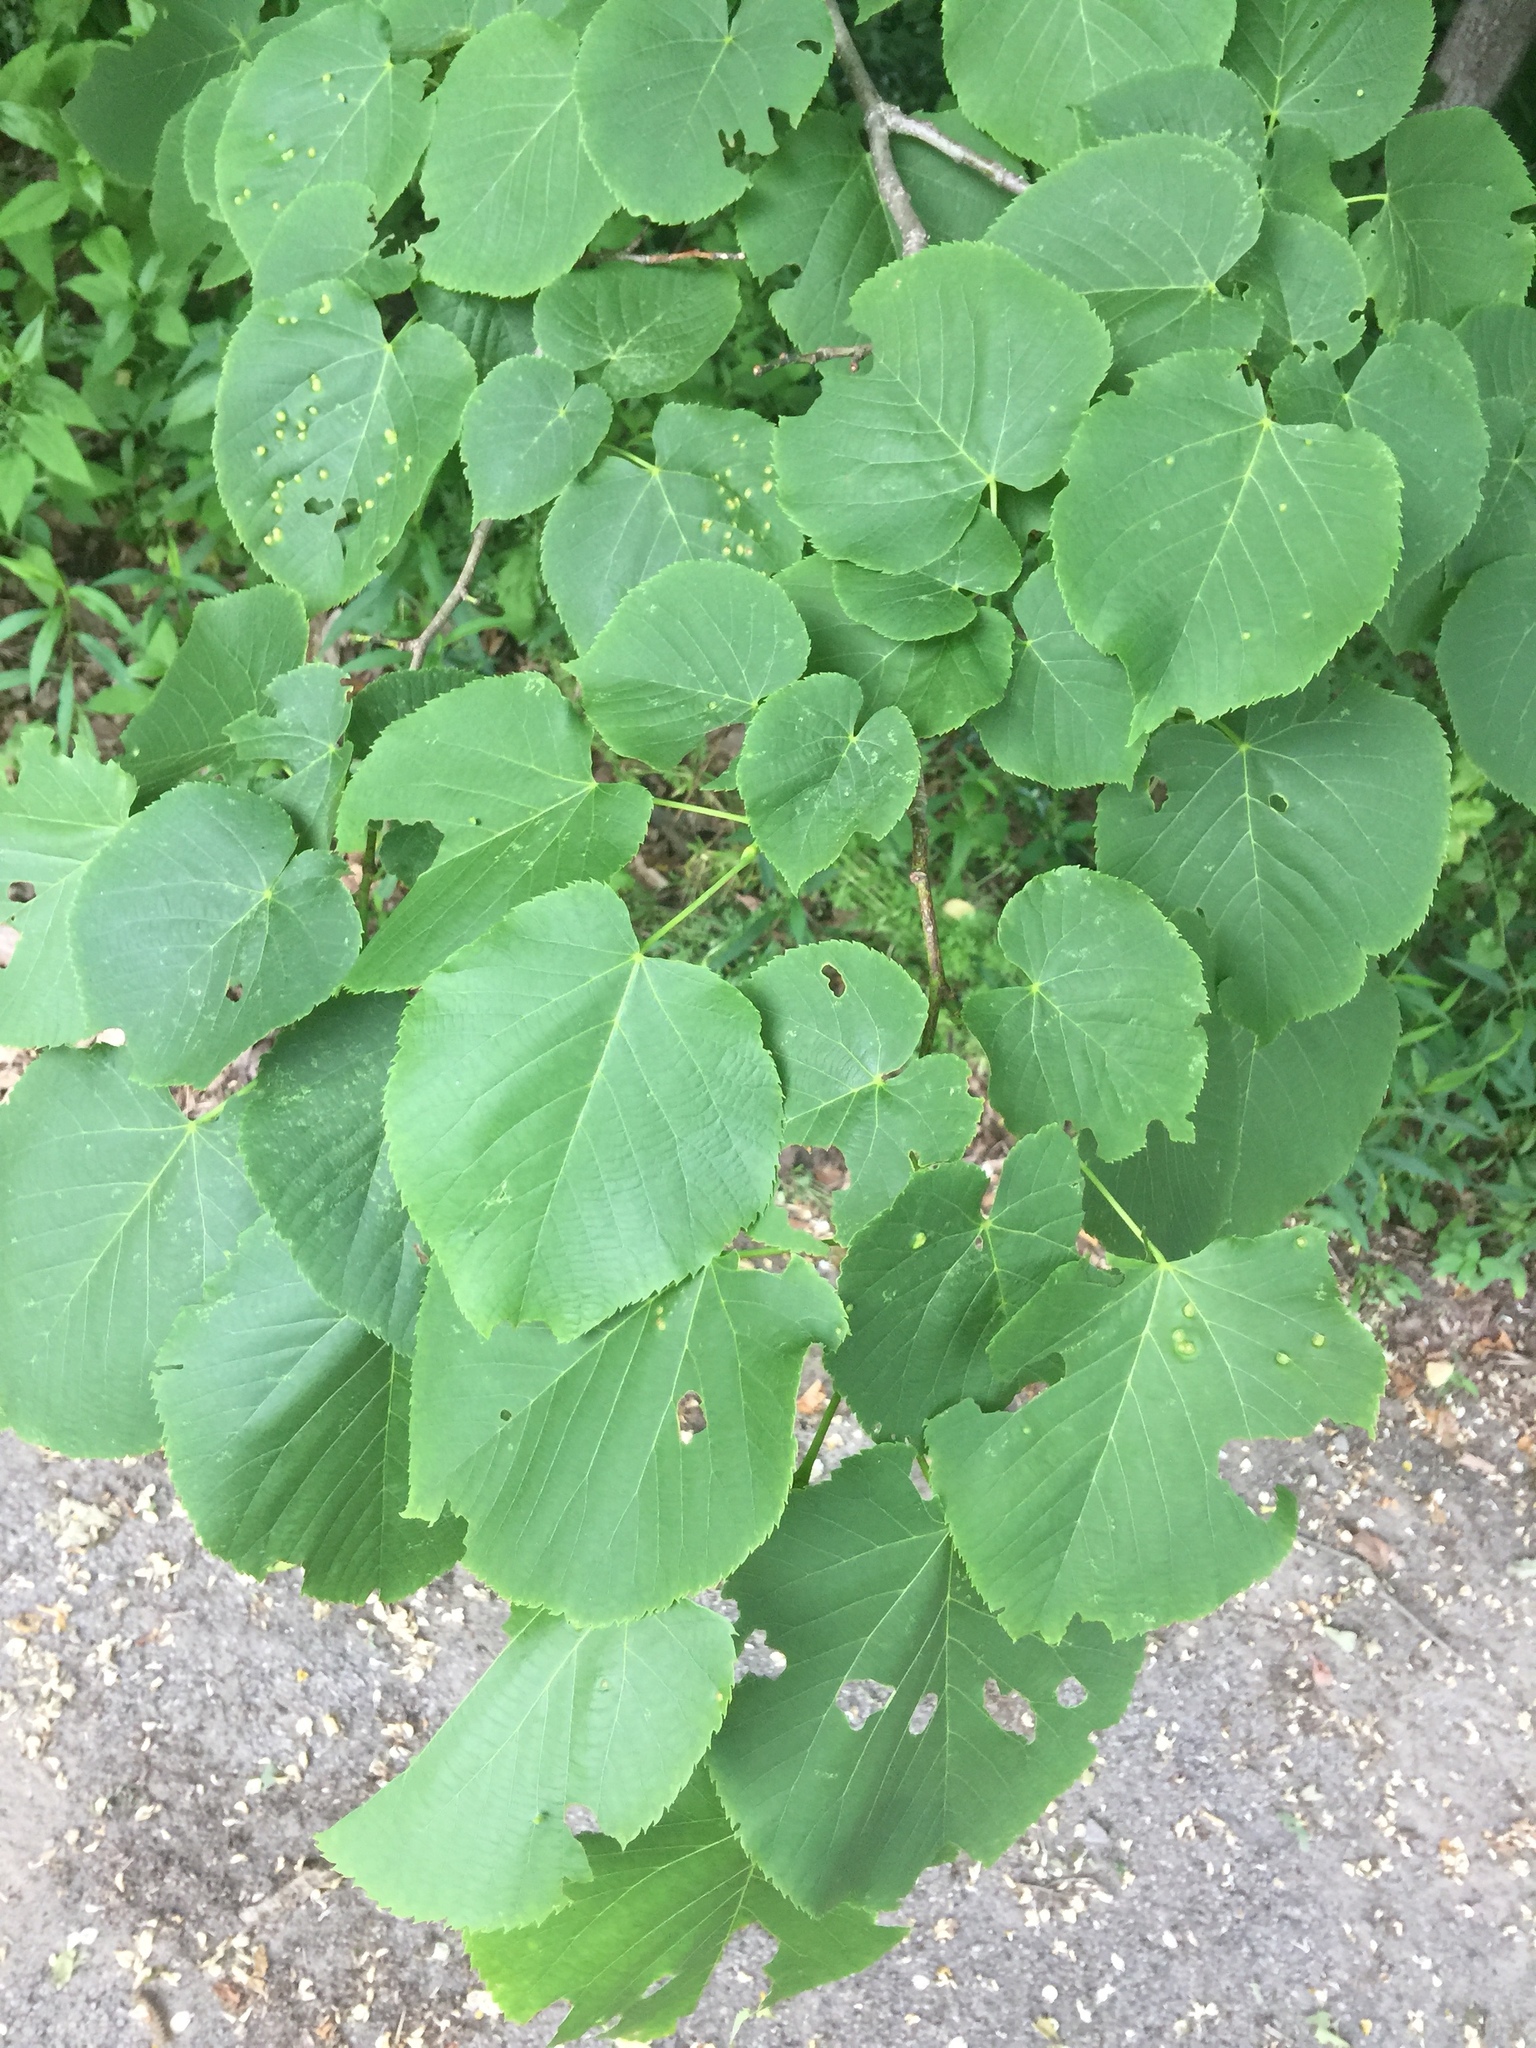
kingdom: Plantae
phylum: Tracheophyta
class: Magnoliopsida
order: Malvales
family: Malvaceae
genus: Tilia
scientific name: Tilia americana
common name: Basswood
